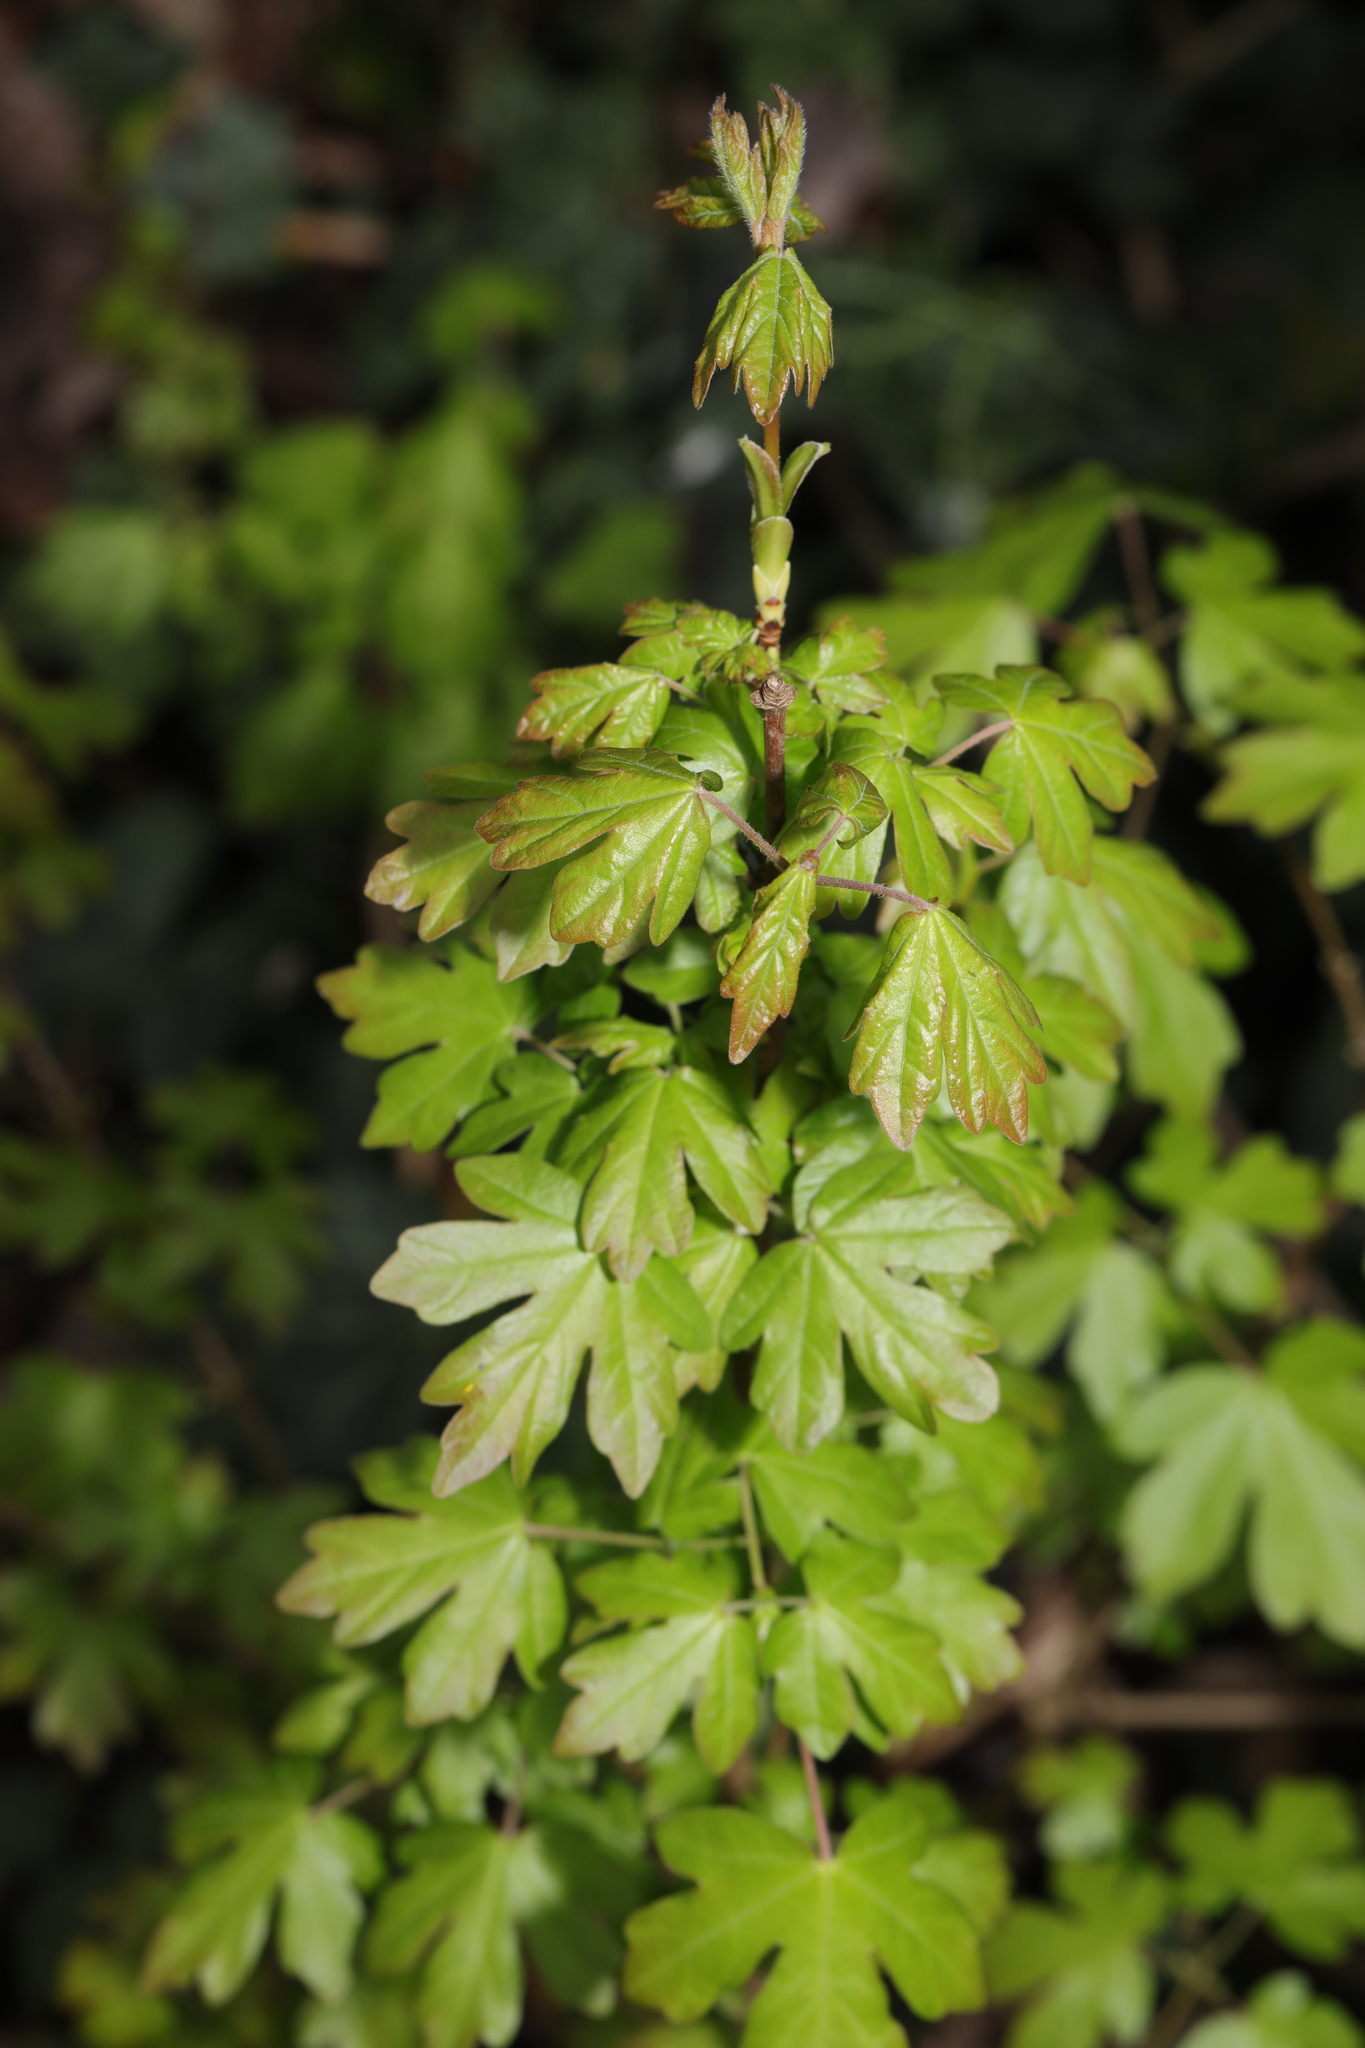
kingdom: Plantae
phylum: Tracheophyta
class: Magnoliopsida
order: Sapindales
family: Sapindaceae
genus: Acer
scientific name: Acer campestre
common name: Field maple
